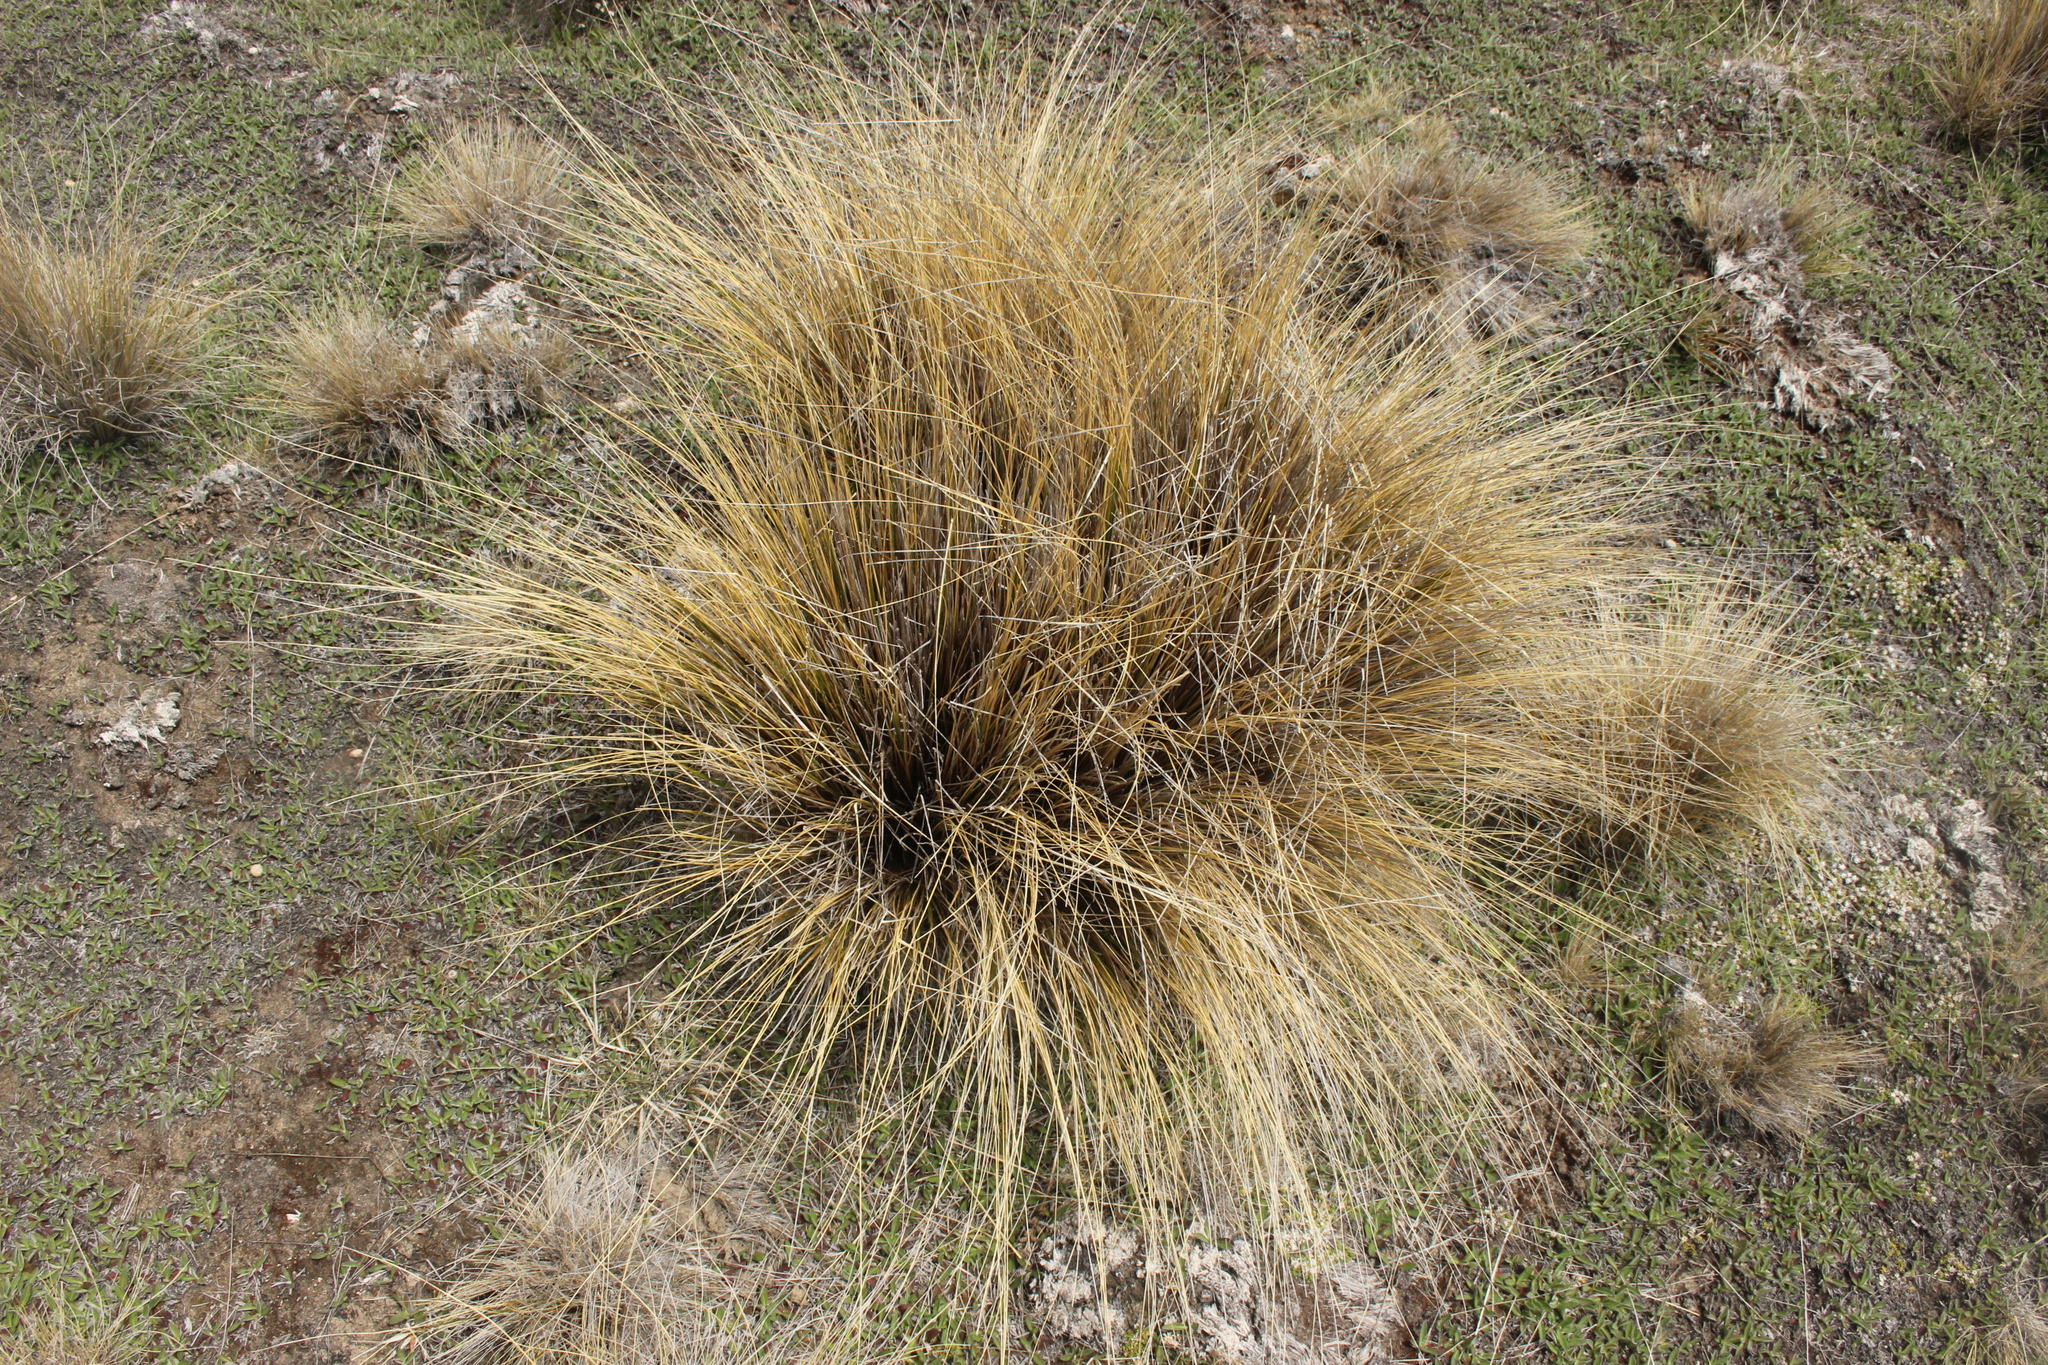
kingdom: Plantae
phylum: Tracheophyta
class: Liliopsida
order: Poales
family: Poaceae
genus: Chionochloa
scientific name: Chionochloa macra
